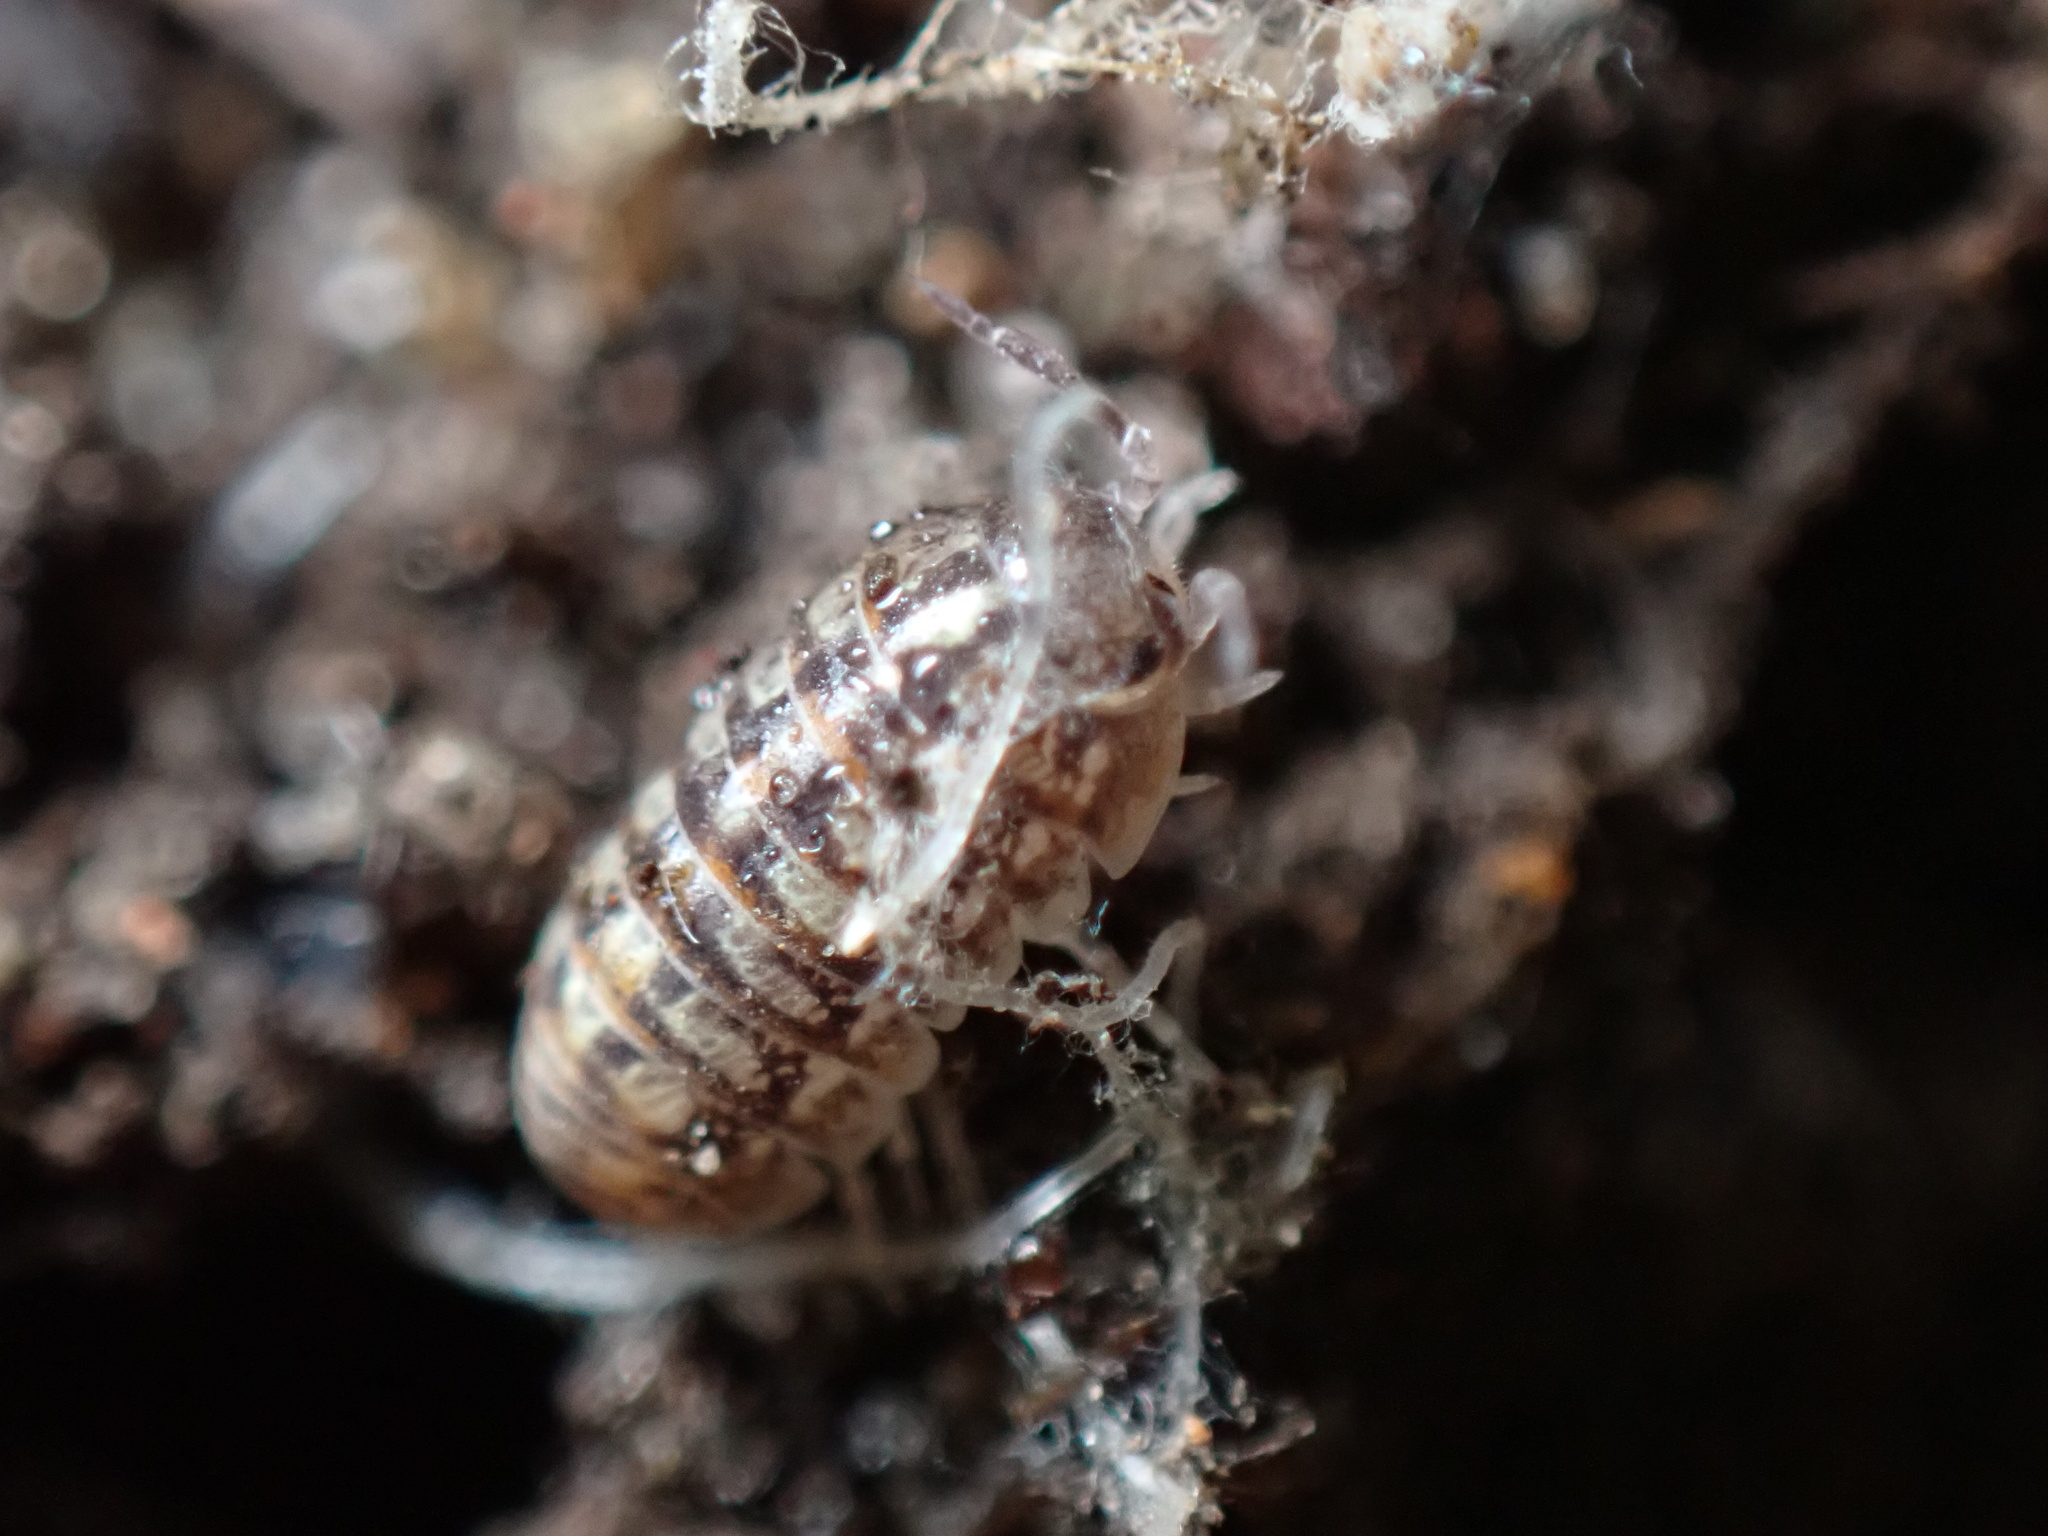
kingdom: Animalia
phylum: Arthropoda
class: Malacostraca
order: Isopoda
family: Armadillidiidae
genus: Armadillidium
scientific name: Armadillidium vulgare
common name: Common pill woodlouse
